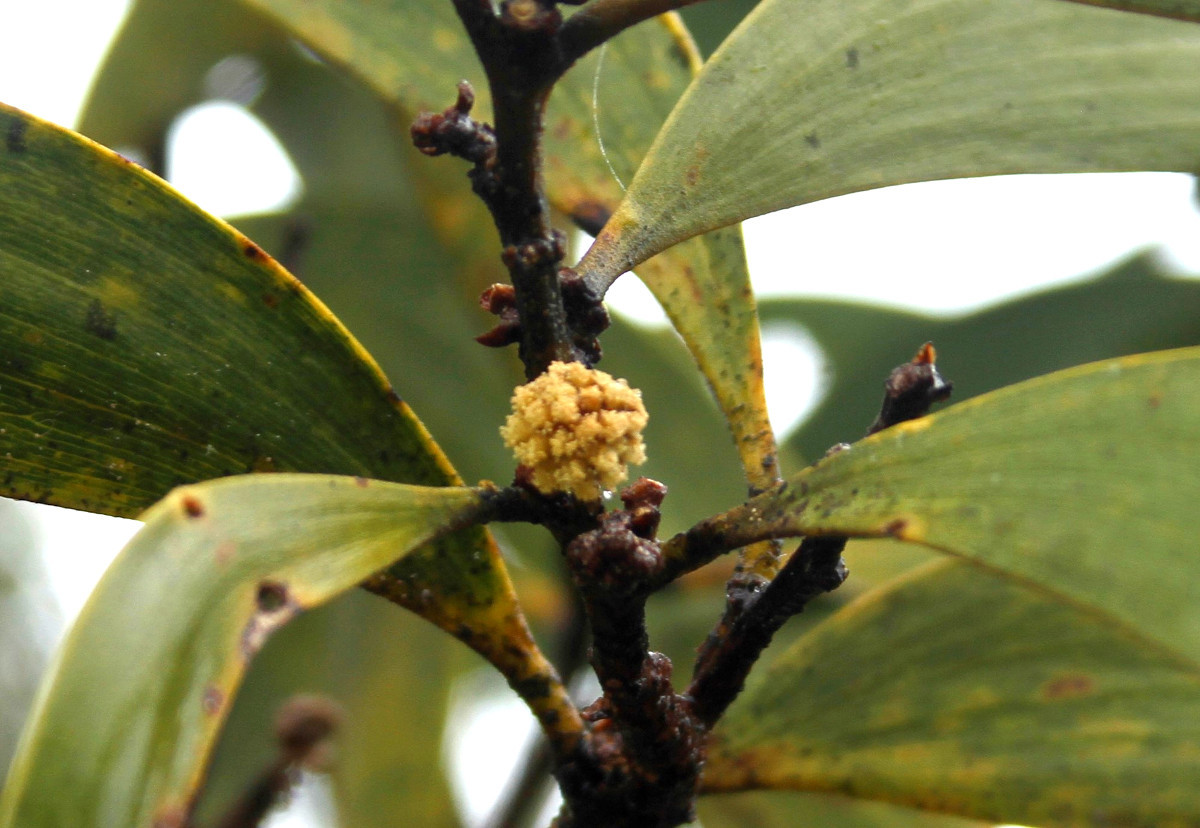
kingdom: Plantae
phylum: Tracheophyta
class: Magnoliopsida
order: Fabales
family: Fabaceae
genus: Acacia
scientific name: Acacia koa
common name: Gray koa
